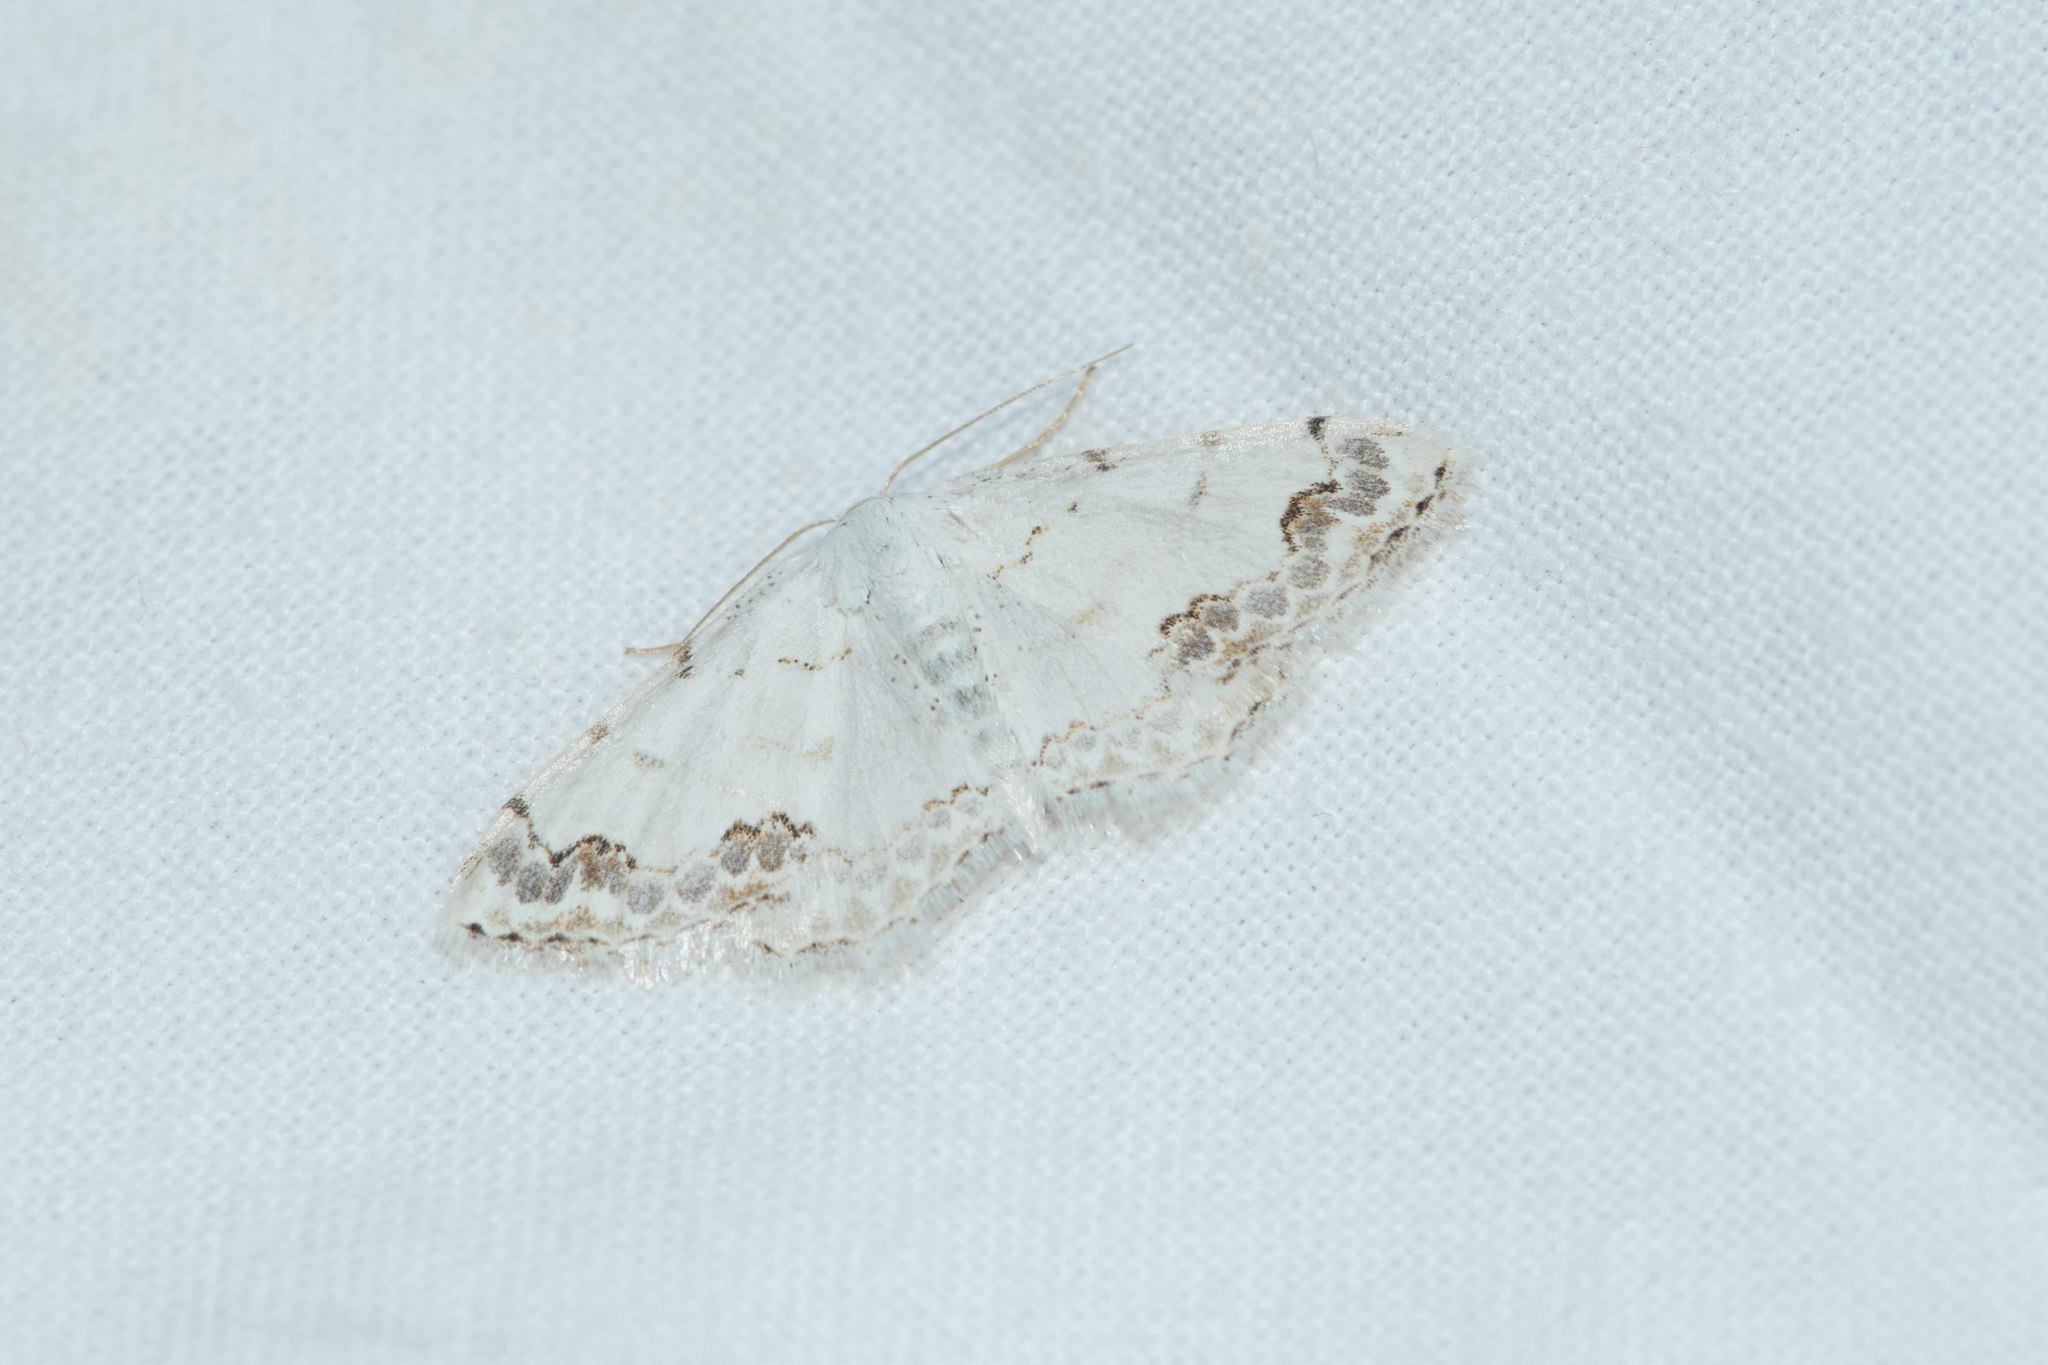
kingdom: Animalia
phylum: Arthropoda
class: Insecta
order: Lepidoptera
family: Geometridae
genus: Scopula
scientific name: Scopula decorata
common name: Middle lace border
